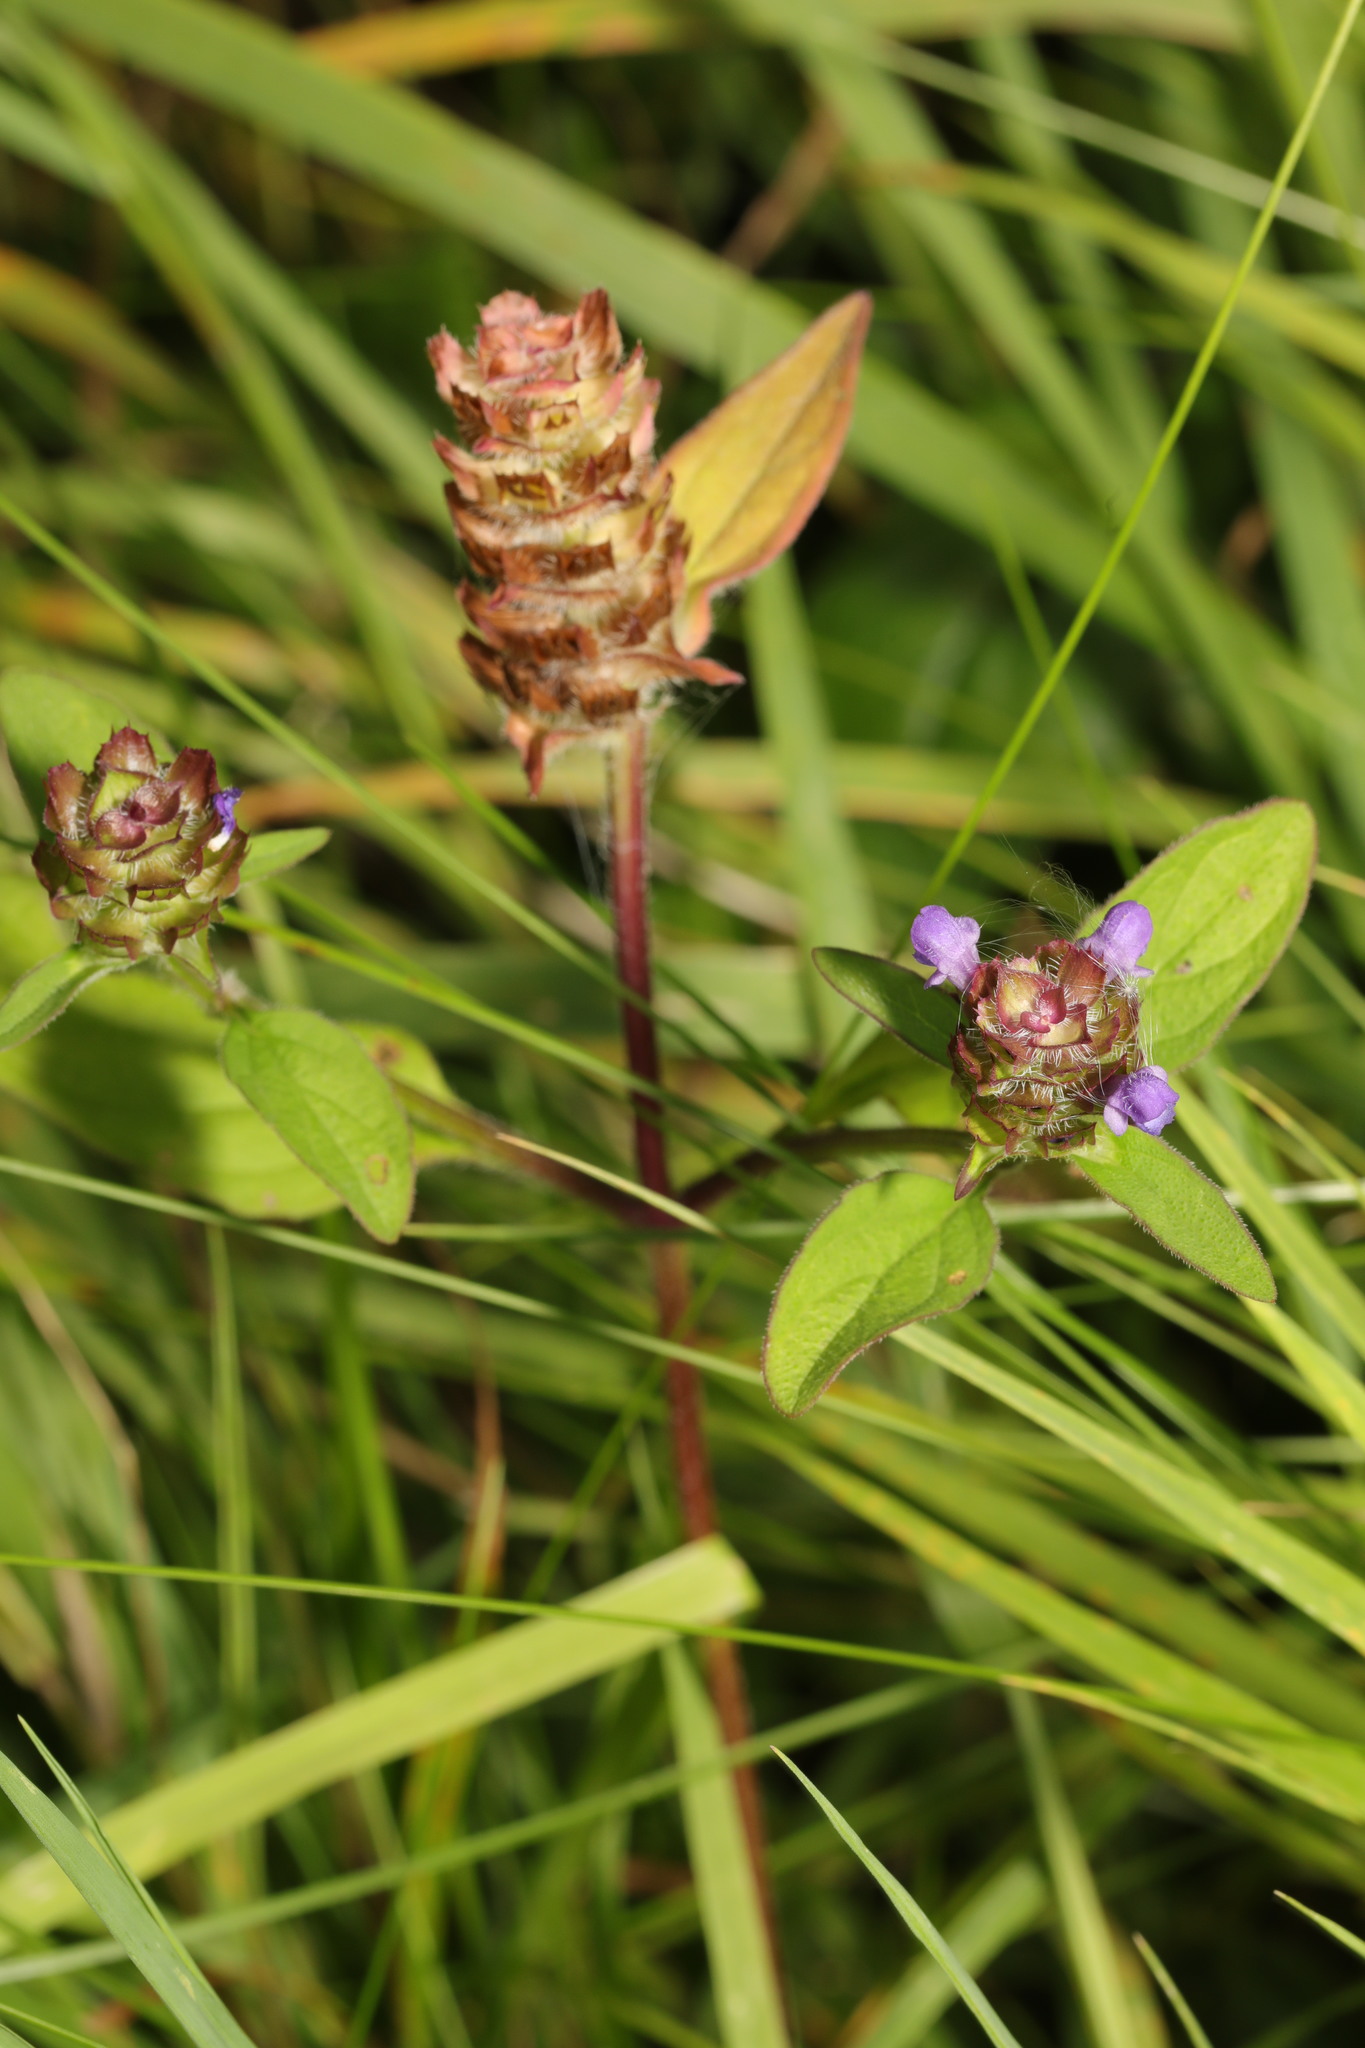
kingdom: Plantae
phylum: Tracheophyta
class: Magnoliopsida
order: Lamiales
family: Lamiaceae
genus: Prunella
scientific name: Prunella vulgaris
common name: Heal-all
